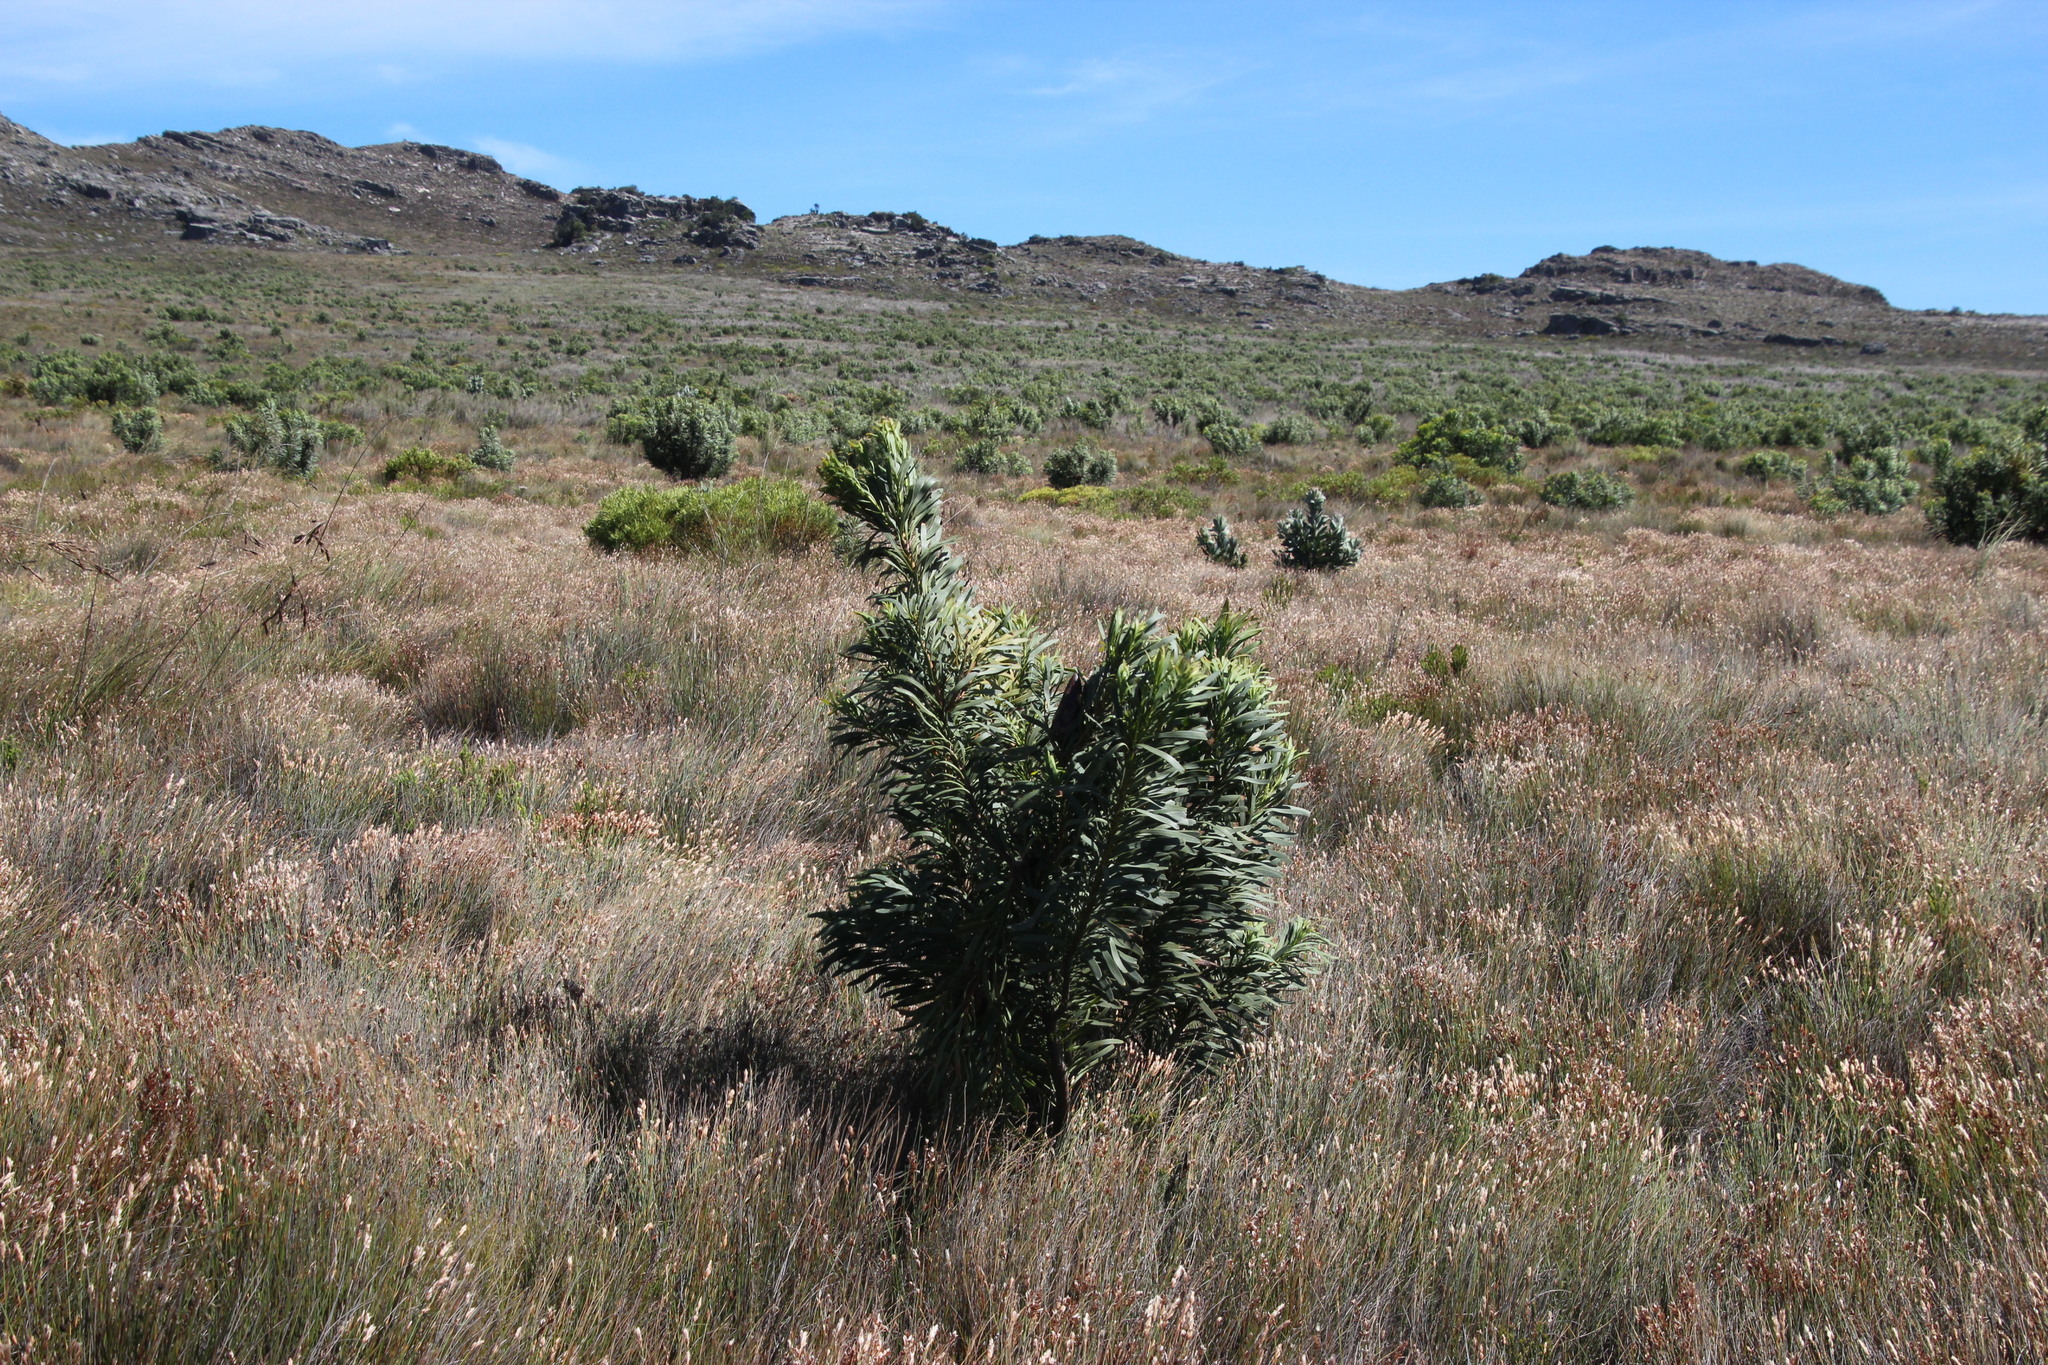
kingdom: Plantae
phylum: Tracheophyta
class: Magnoliopsida
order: Proteales
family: Proteaceae
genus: Protea
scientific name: Protea repens
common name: Sugarbush
